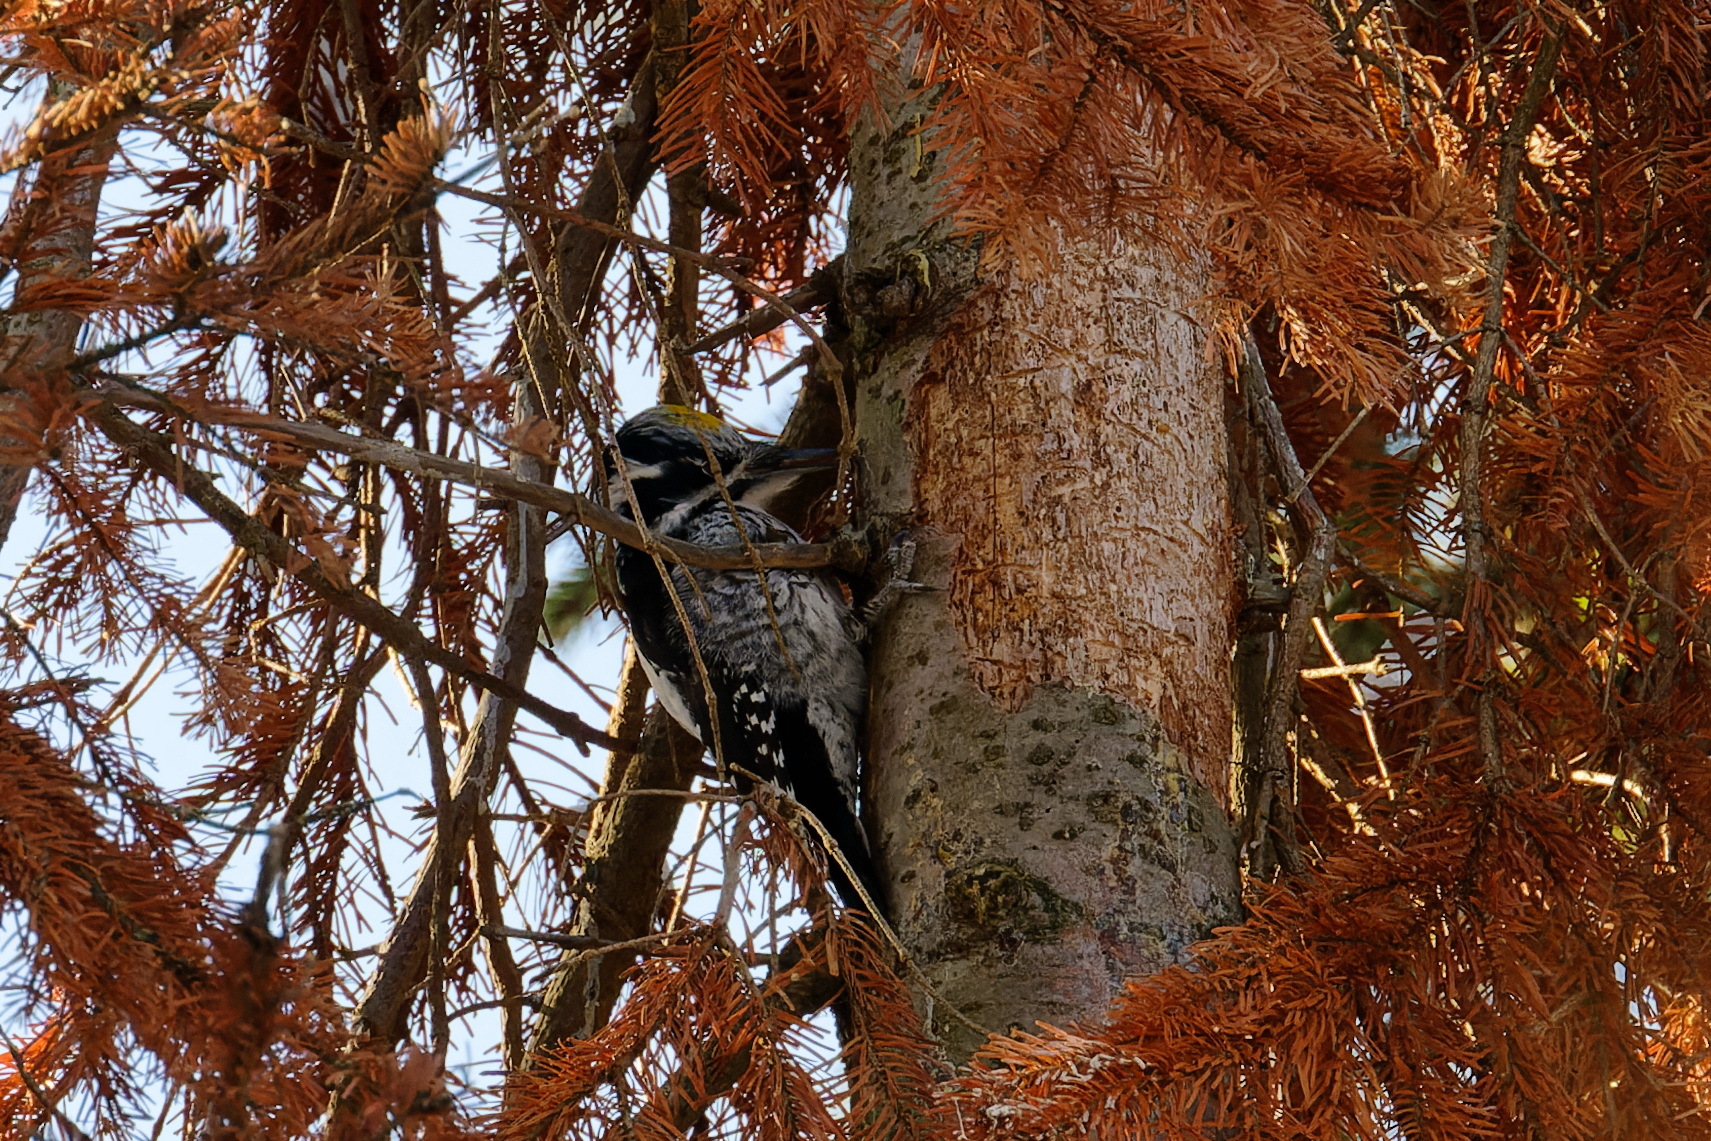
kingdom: Animalia
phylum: Chordata
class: Aves
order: Piciformes
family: Picidae
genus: Picoides
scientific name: Picoides tridactylus
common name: Eurasian three-toed woodpecker
